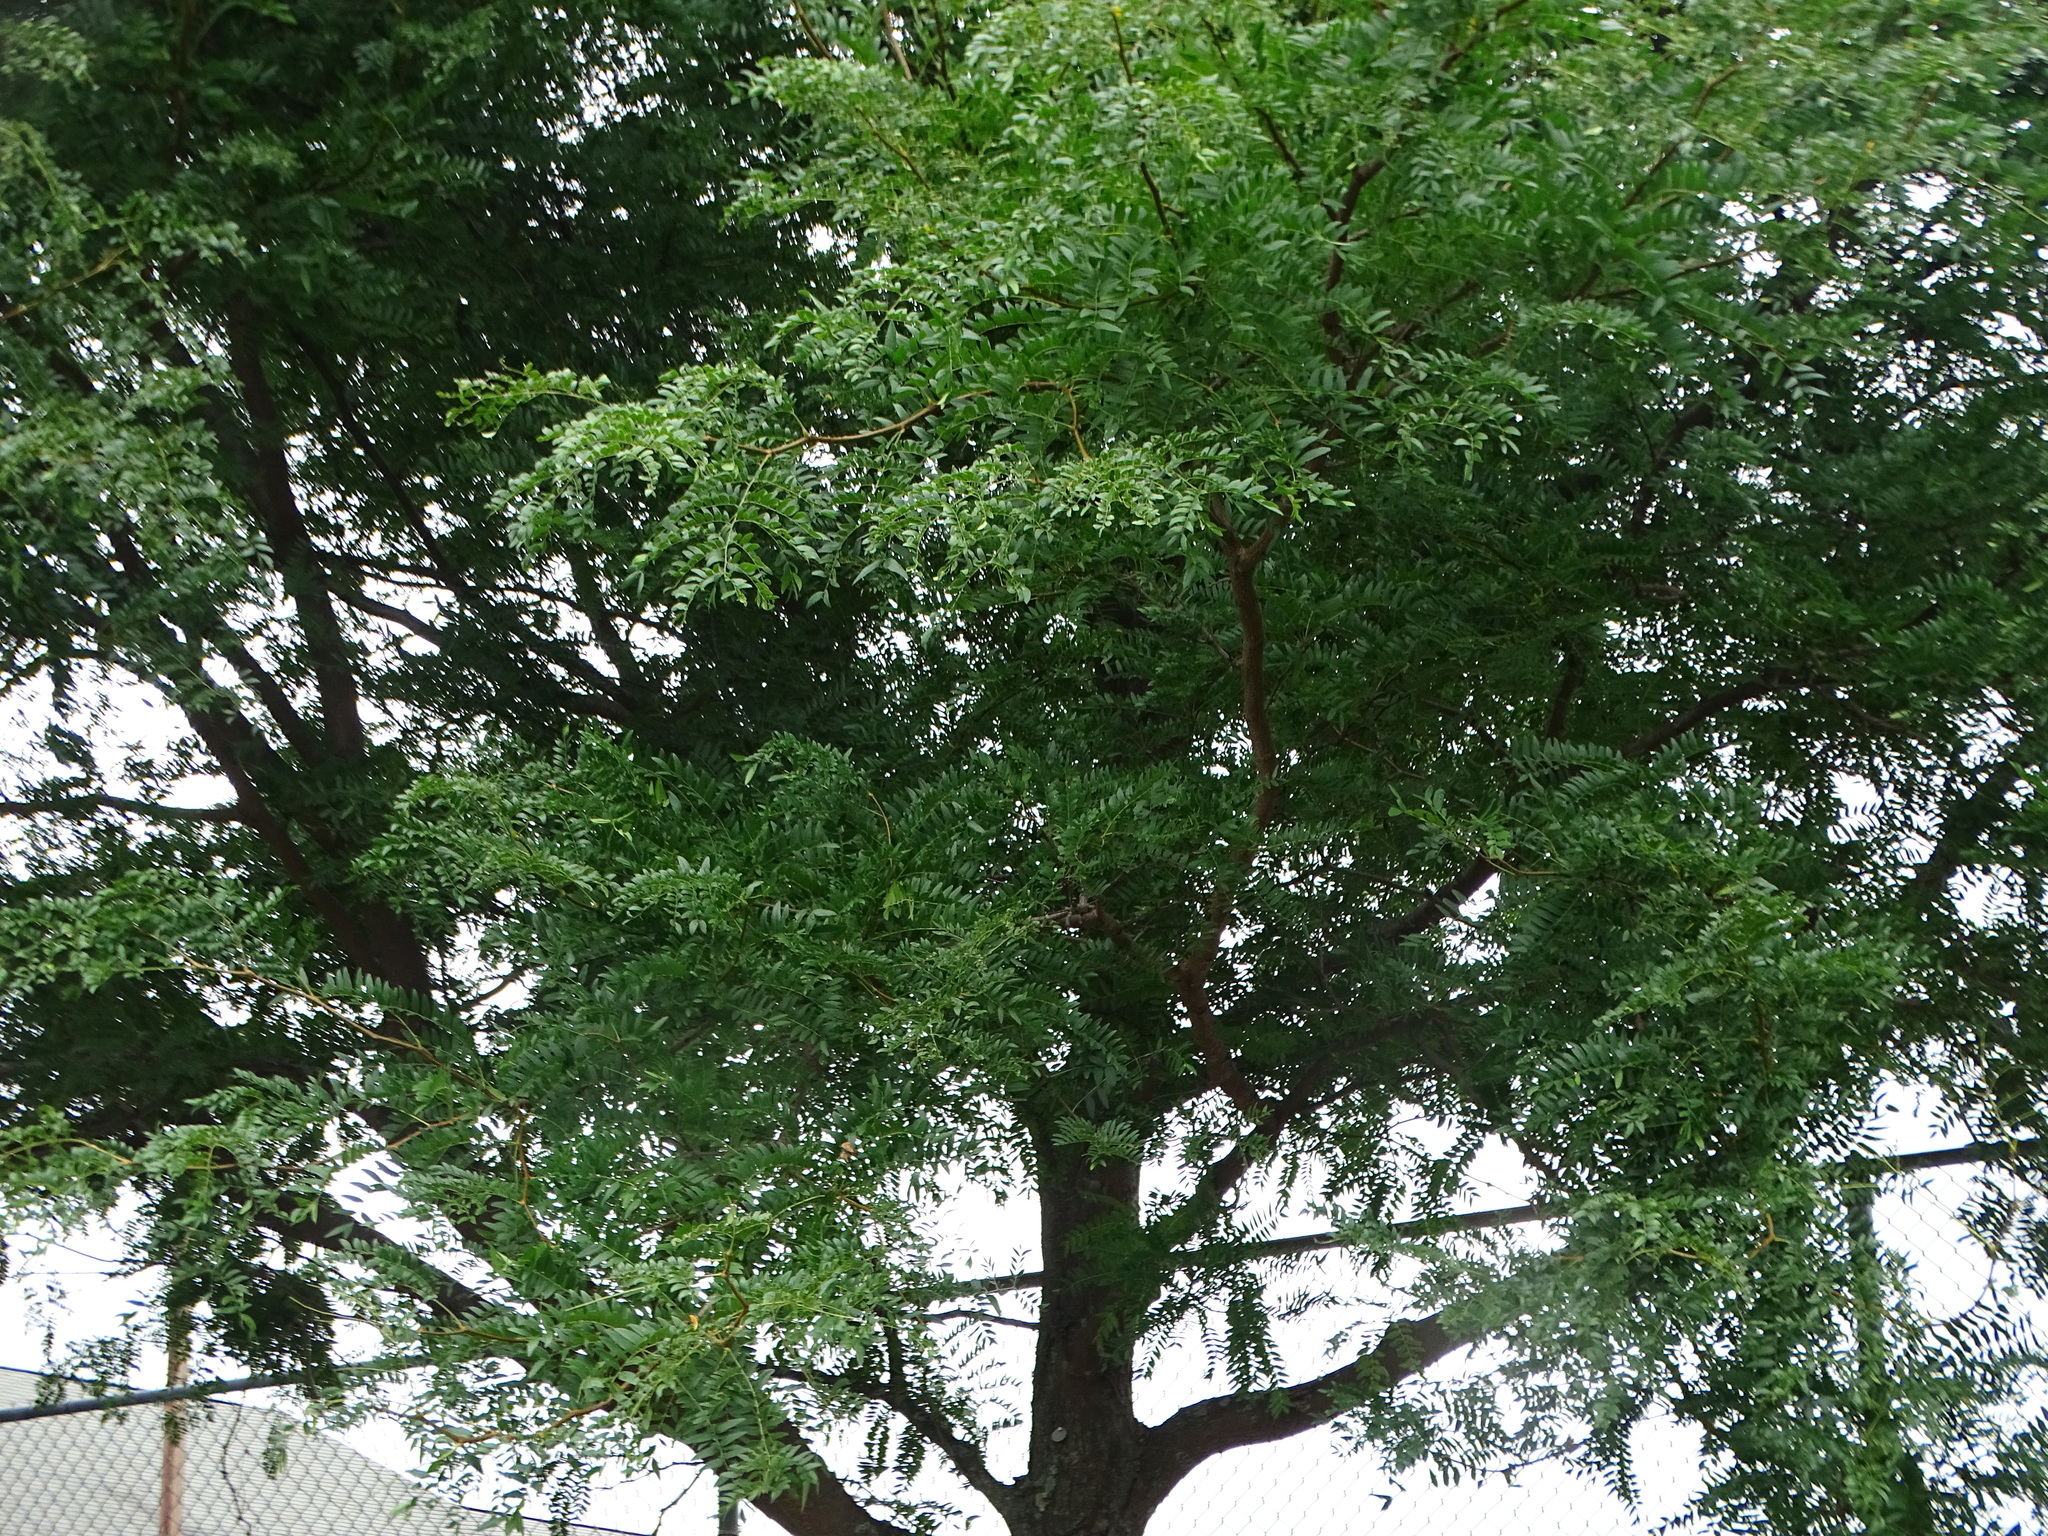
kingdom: Plantae
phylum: Tracheophyta
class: Magnoliopsida
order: Fabales
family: Fabaceae
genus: Gleditsia
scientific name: Gleditsia triacanthos
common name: Common honeylocust
